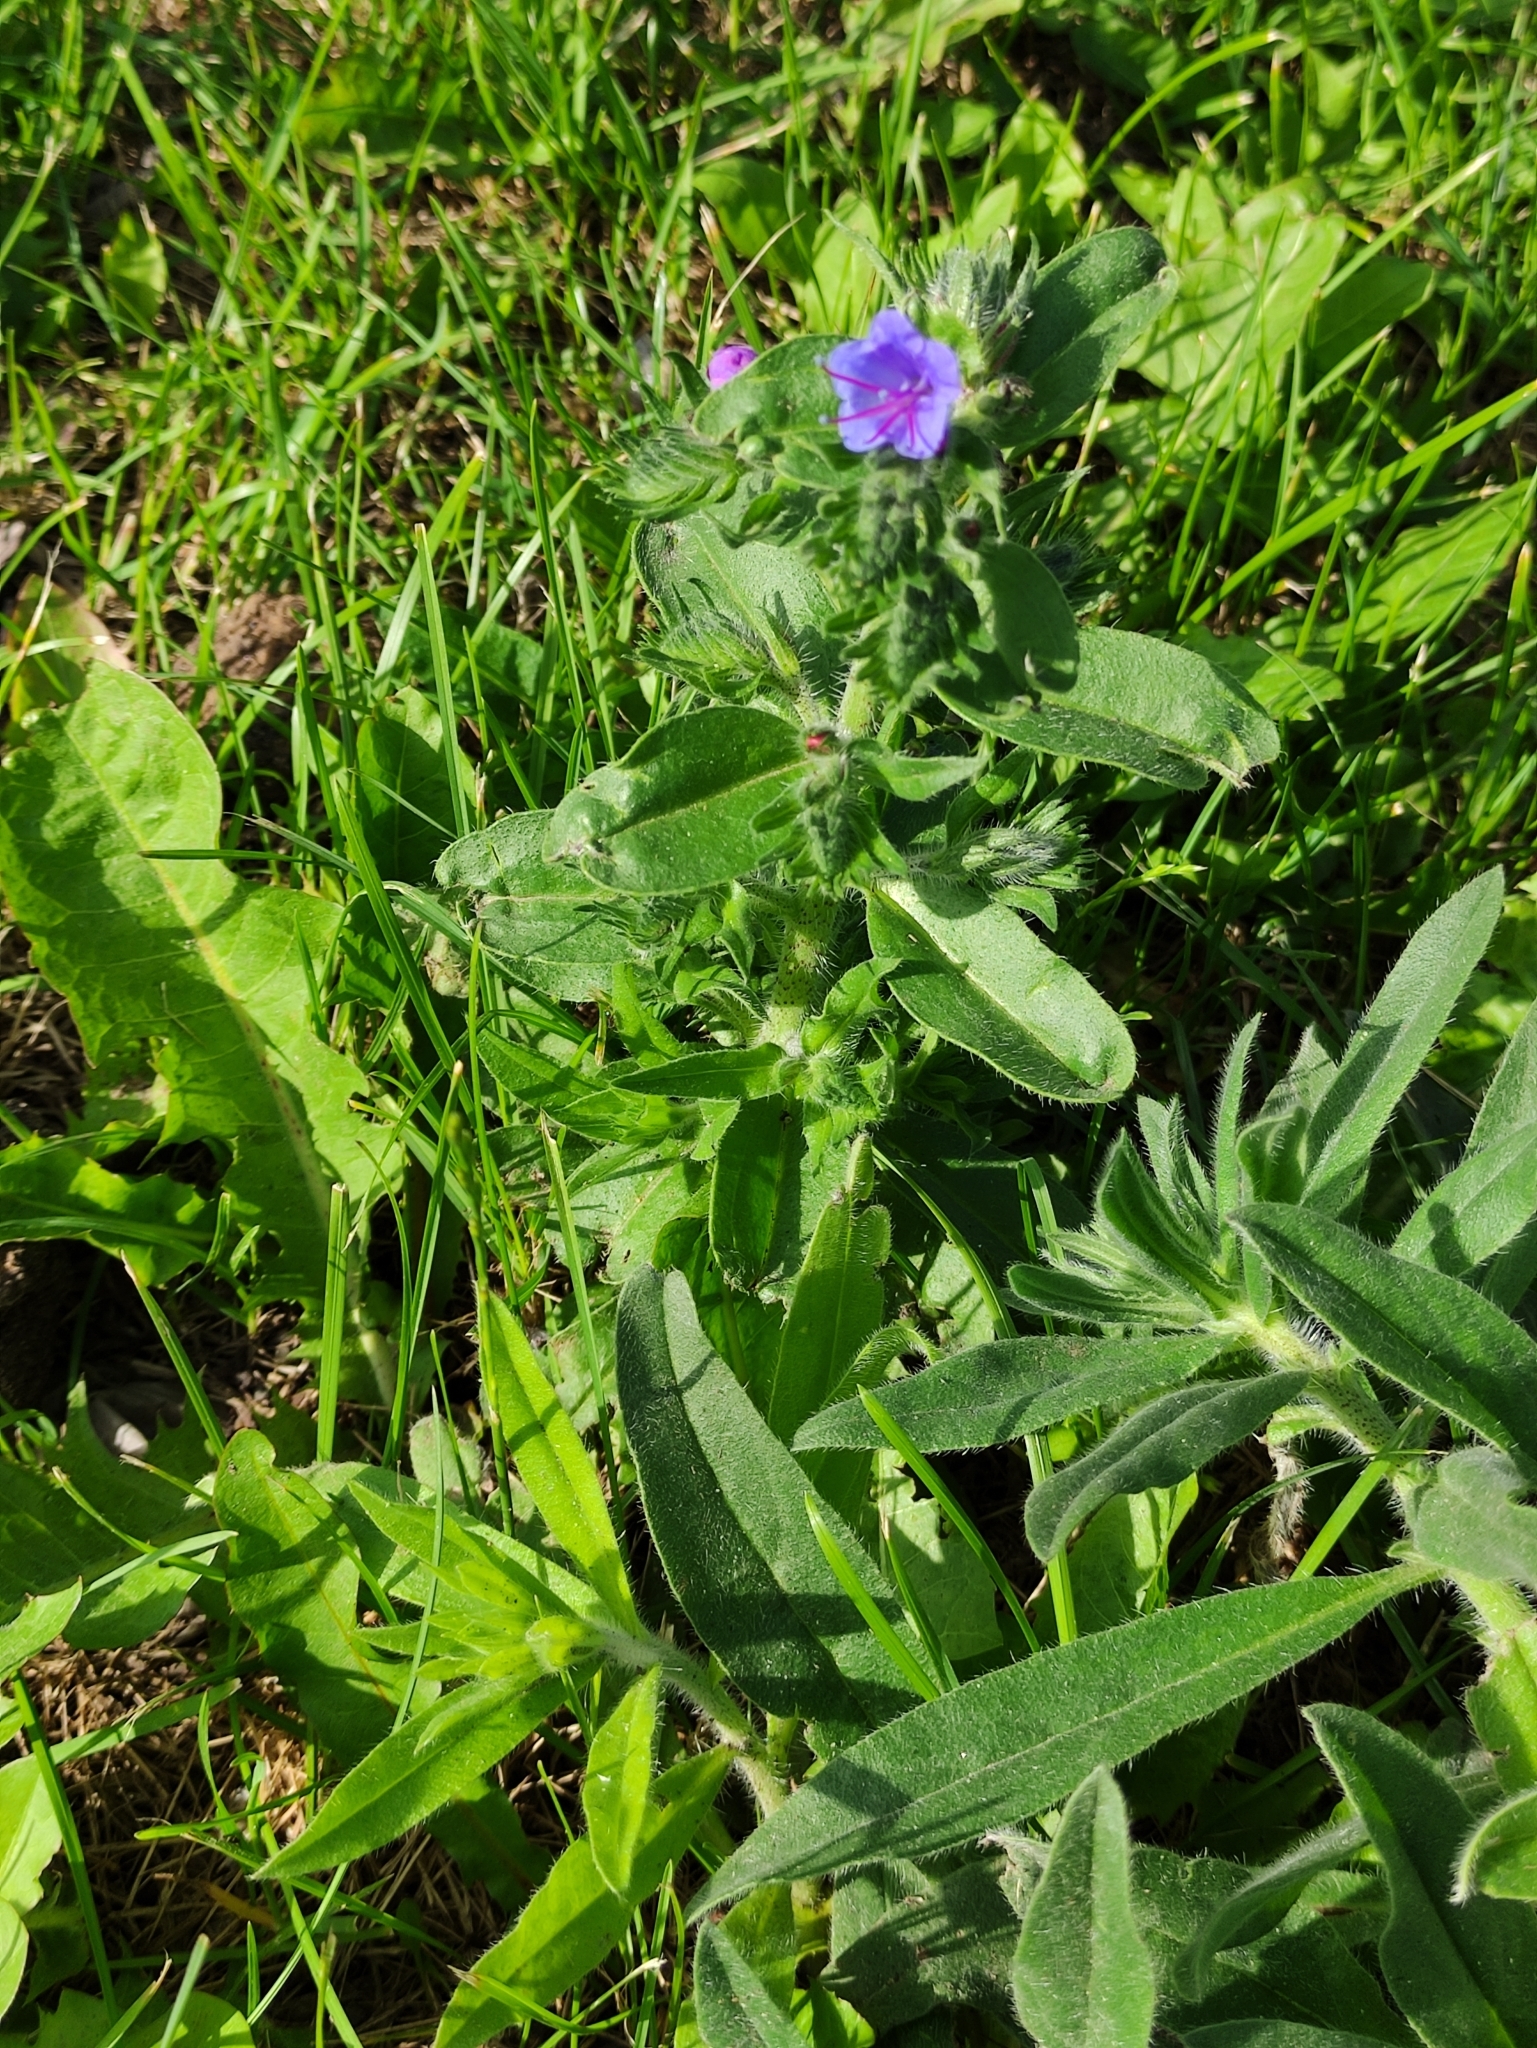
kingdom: Plantae
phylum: Tracheophyta
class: Magnoliopsida
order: Boraginales
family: Boraginaceae
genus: Echium
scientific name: Echium vulgare
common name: Common viper's bugloss
